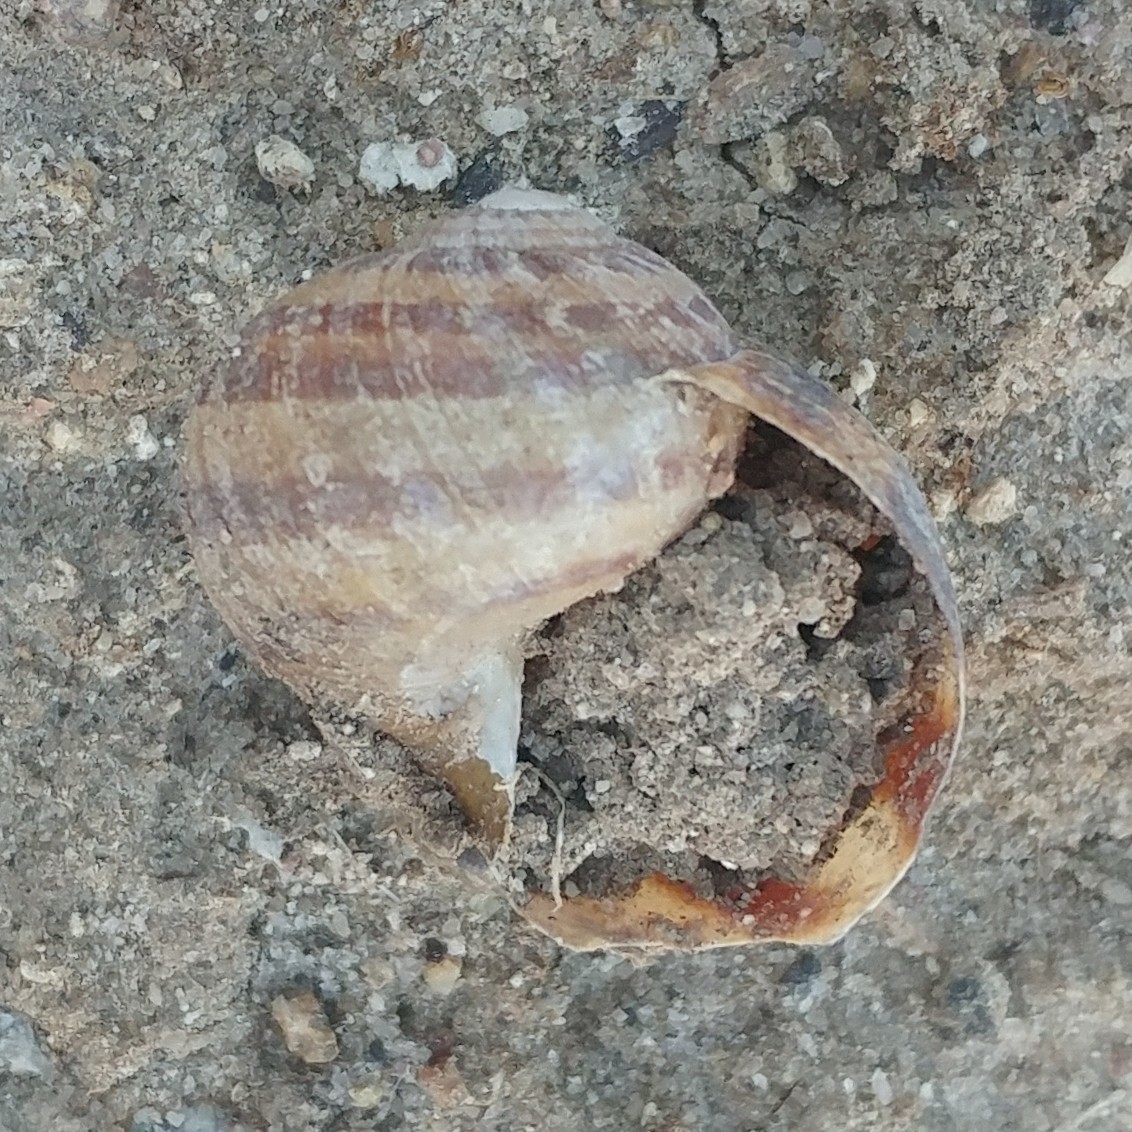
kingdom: Animalia
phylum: Mollusca
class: Gastropoda
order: Stylommatophora
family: Helicidae
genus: Cornu
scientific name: Cornu aspersum
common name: Brown garden snail
